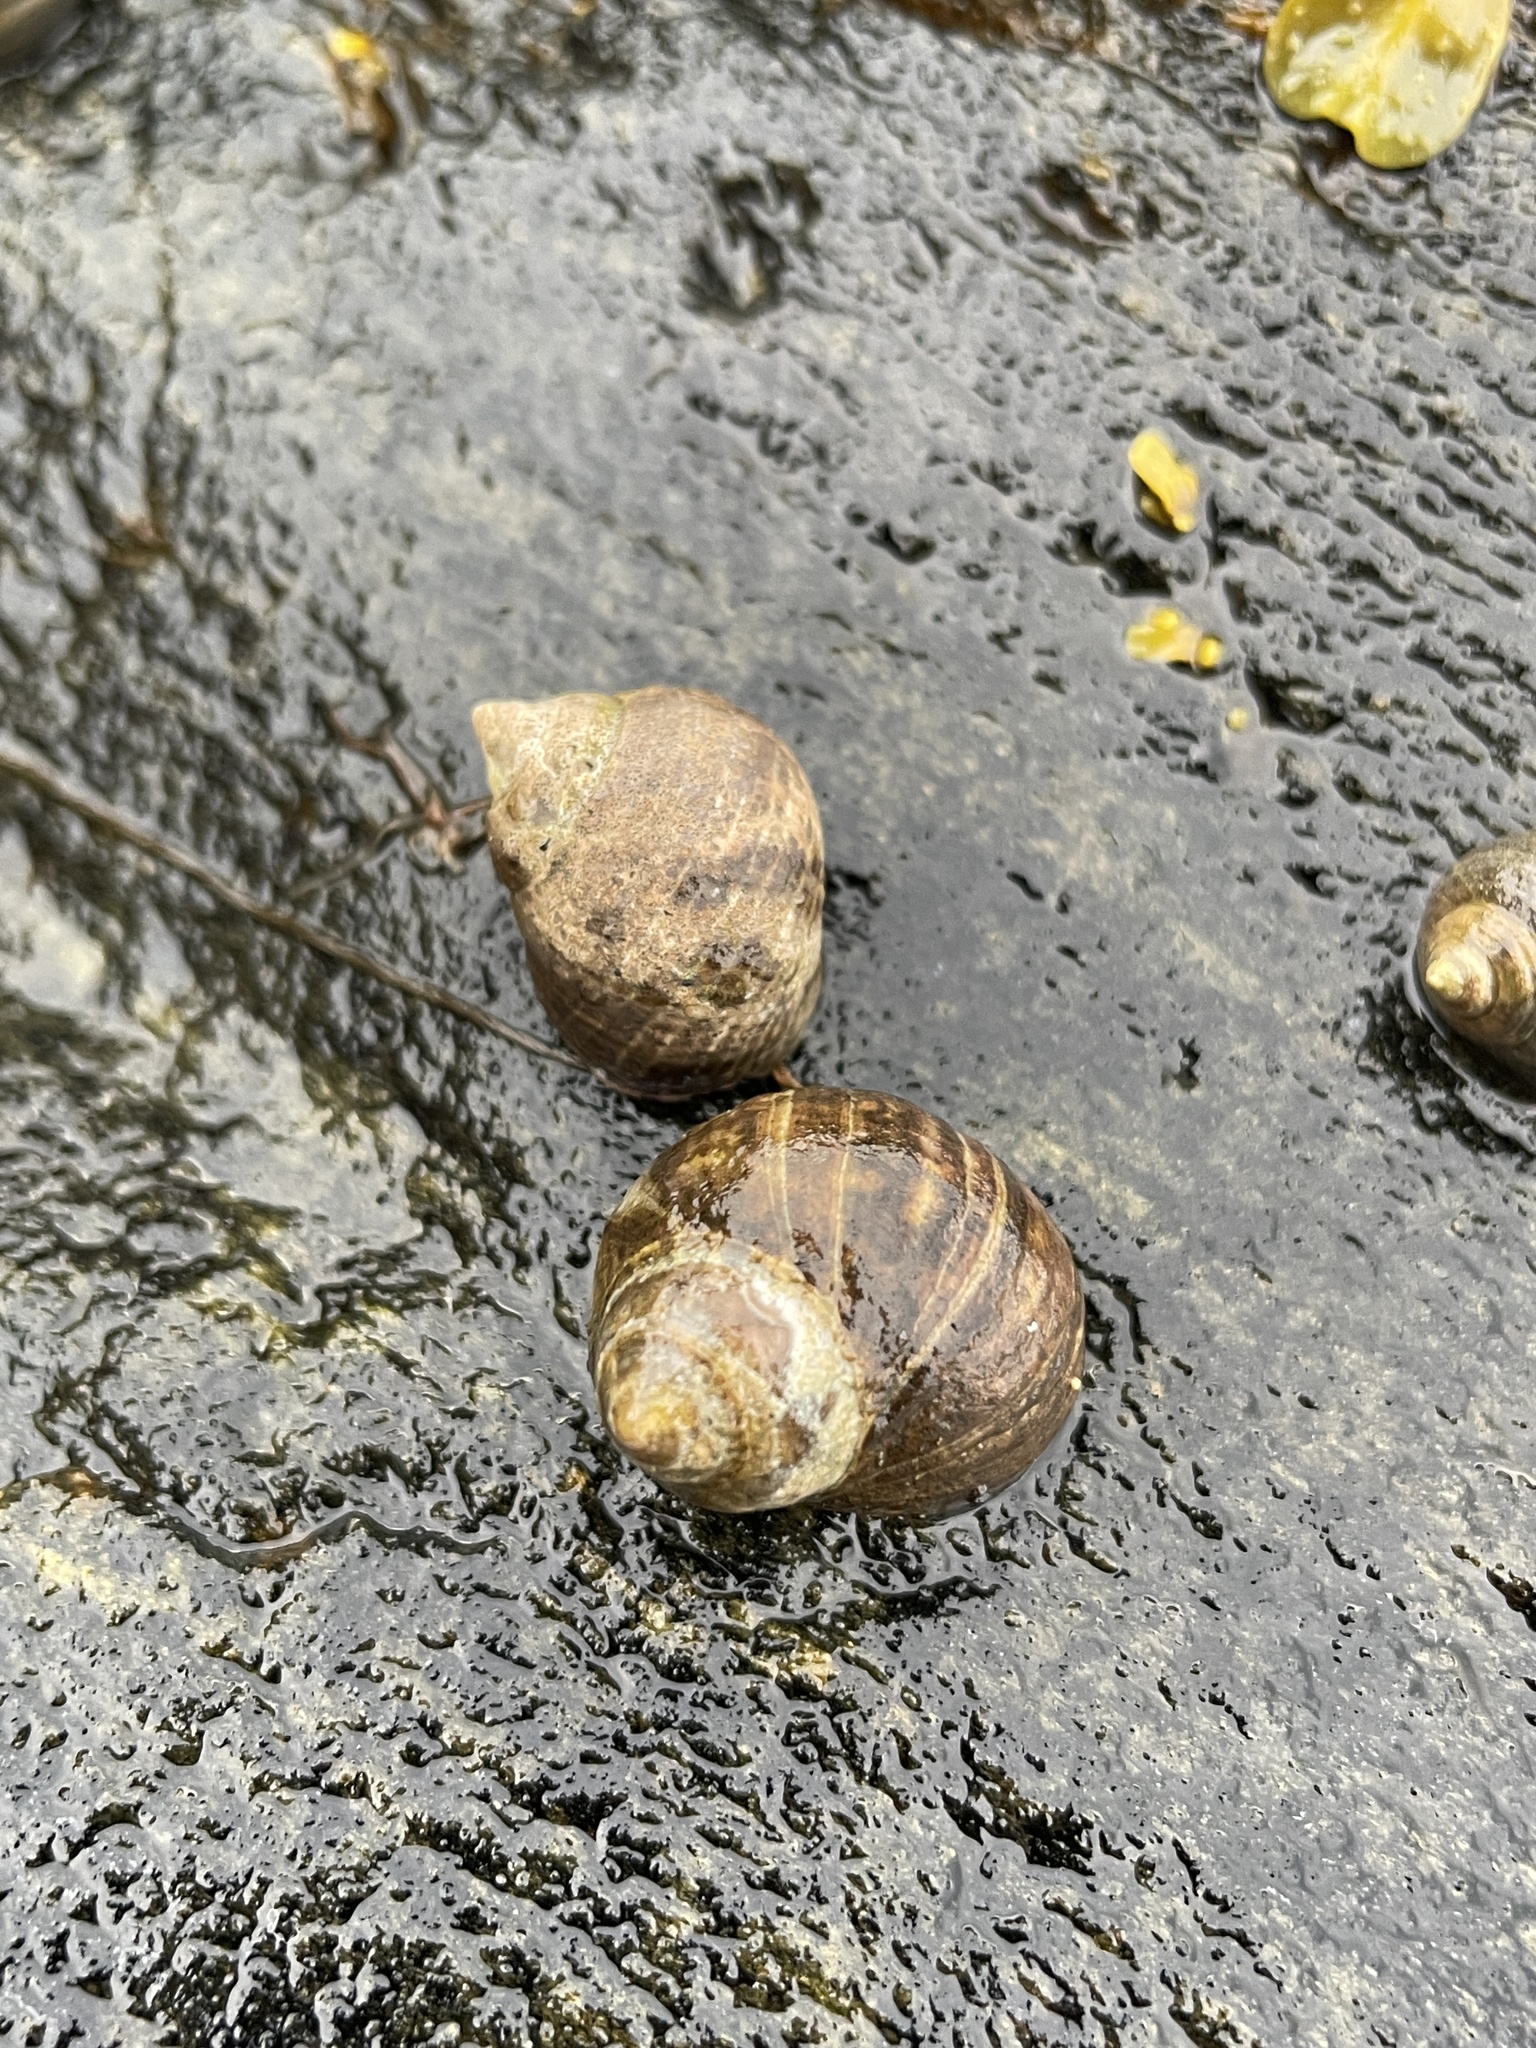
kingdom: Animalia
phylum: Mollusca
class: Gastropoda
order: Littorinimorpha
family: Littorinidae
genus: Littorina
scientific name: Littorina littorea
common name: Common periwinkle
